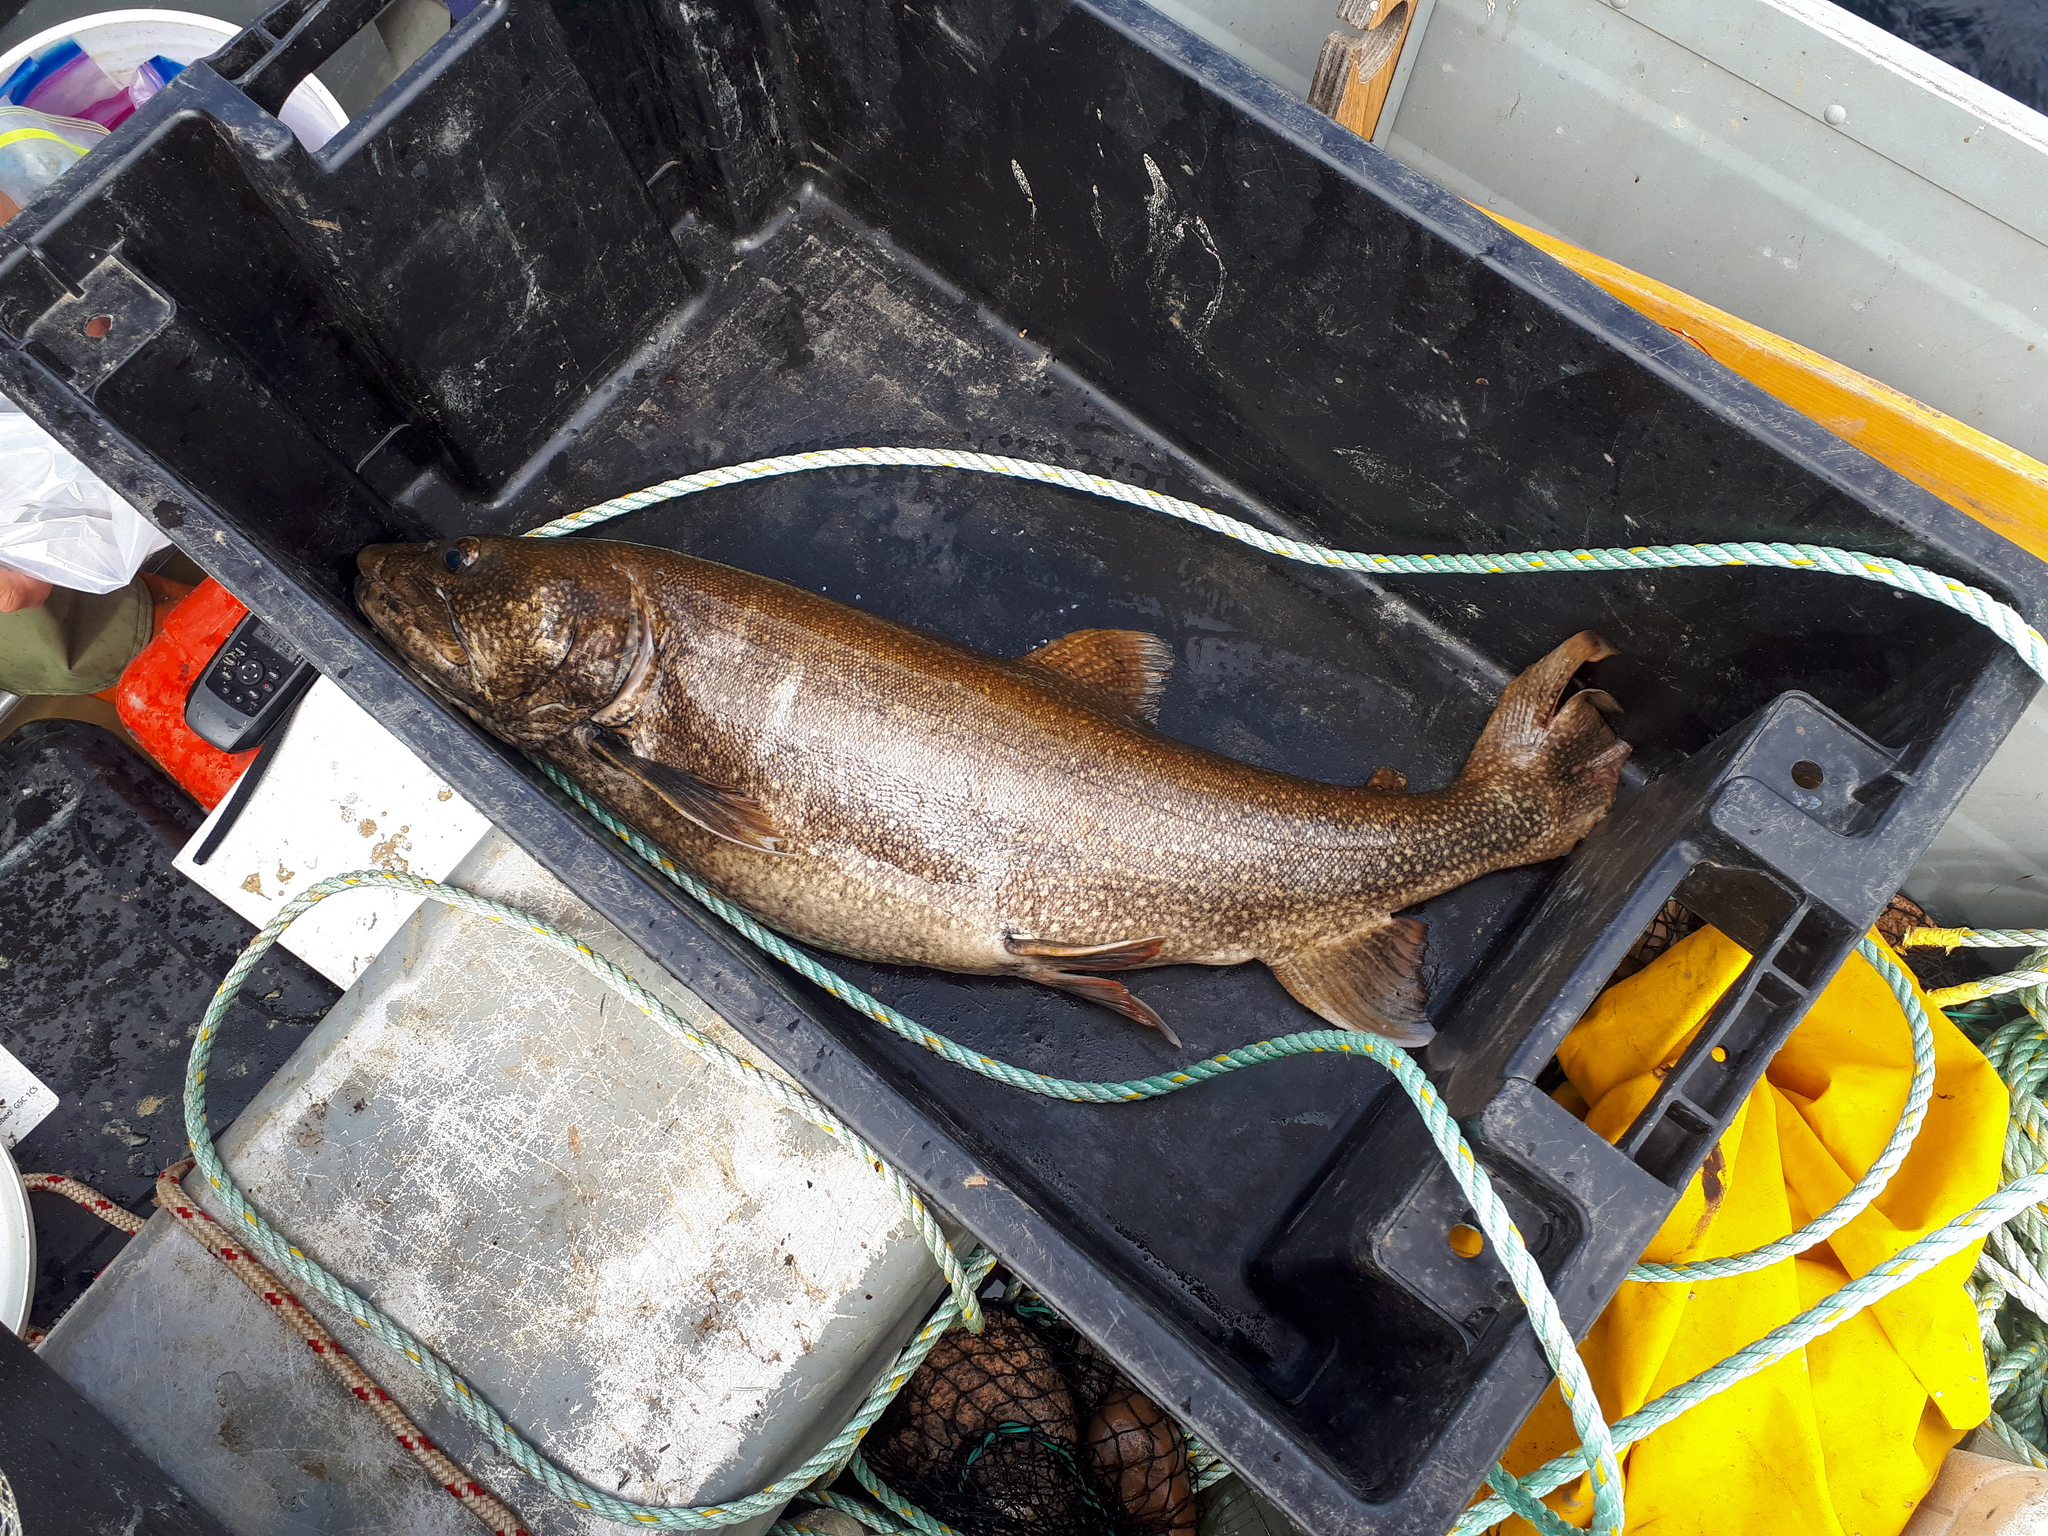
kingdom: Animalia
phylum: Chordata
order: Salmoniformes
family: Salmonidae
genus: Salvelinus
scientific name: Salvelinus namaycush
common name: American lake charr
